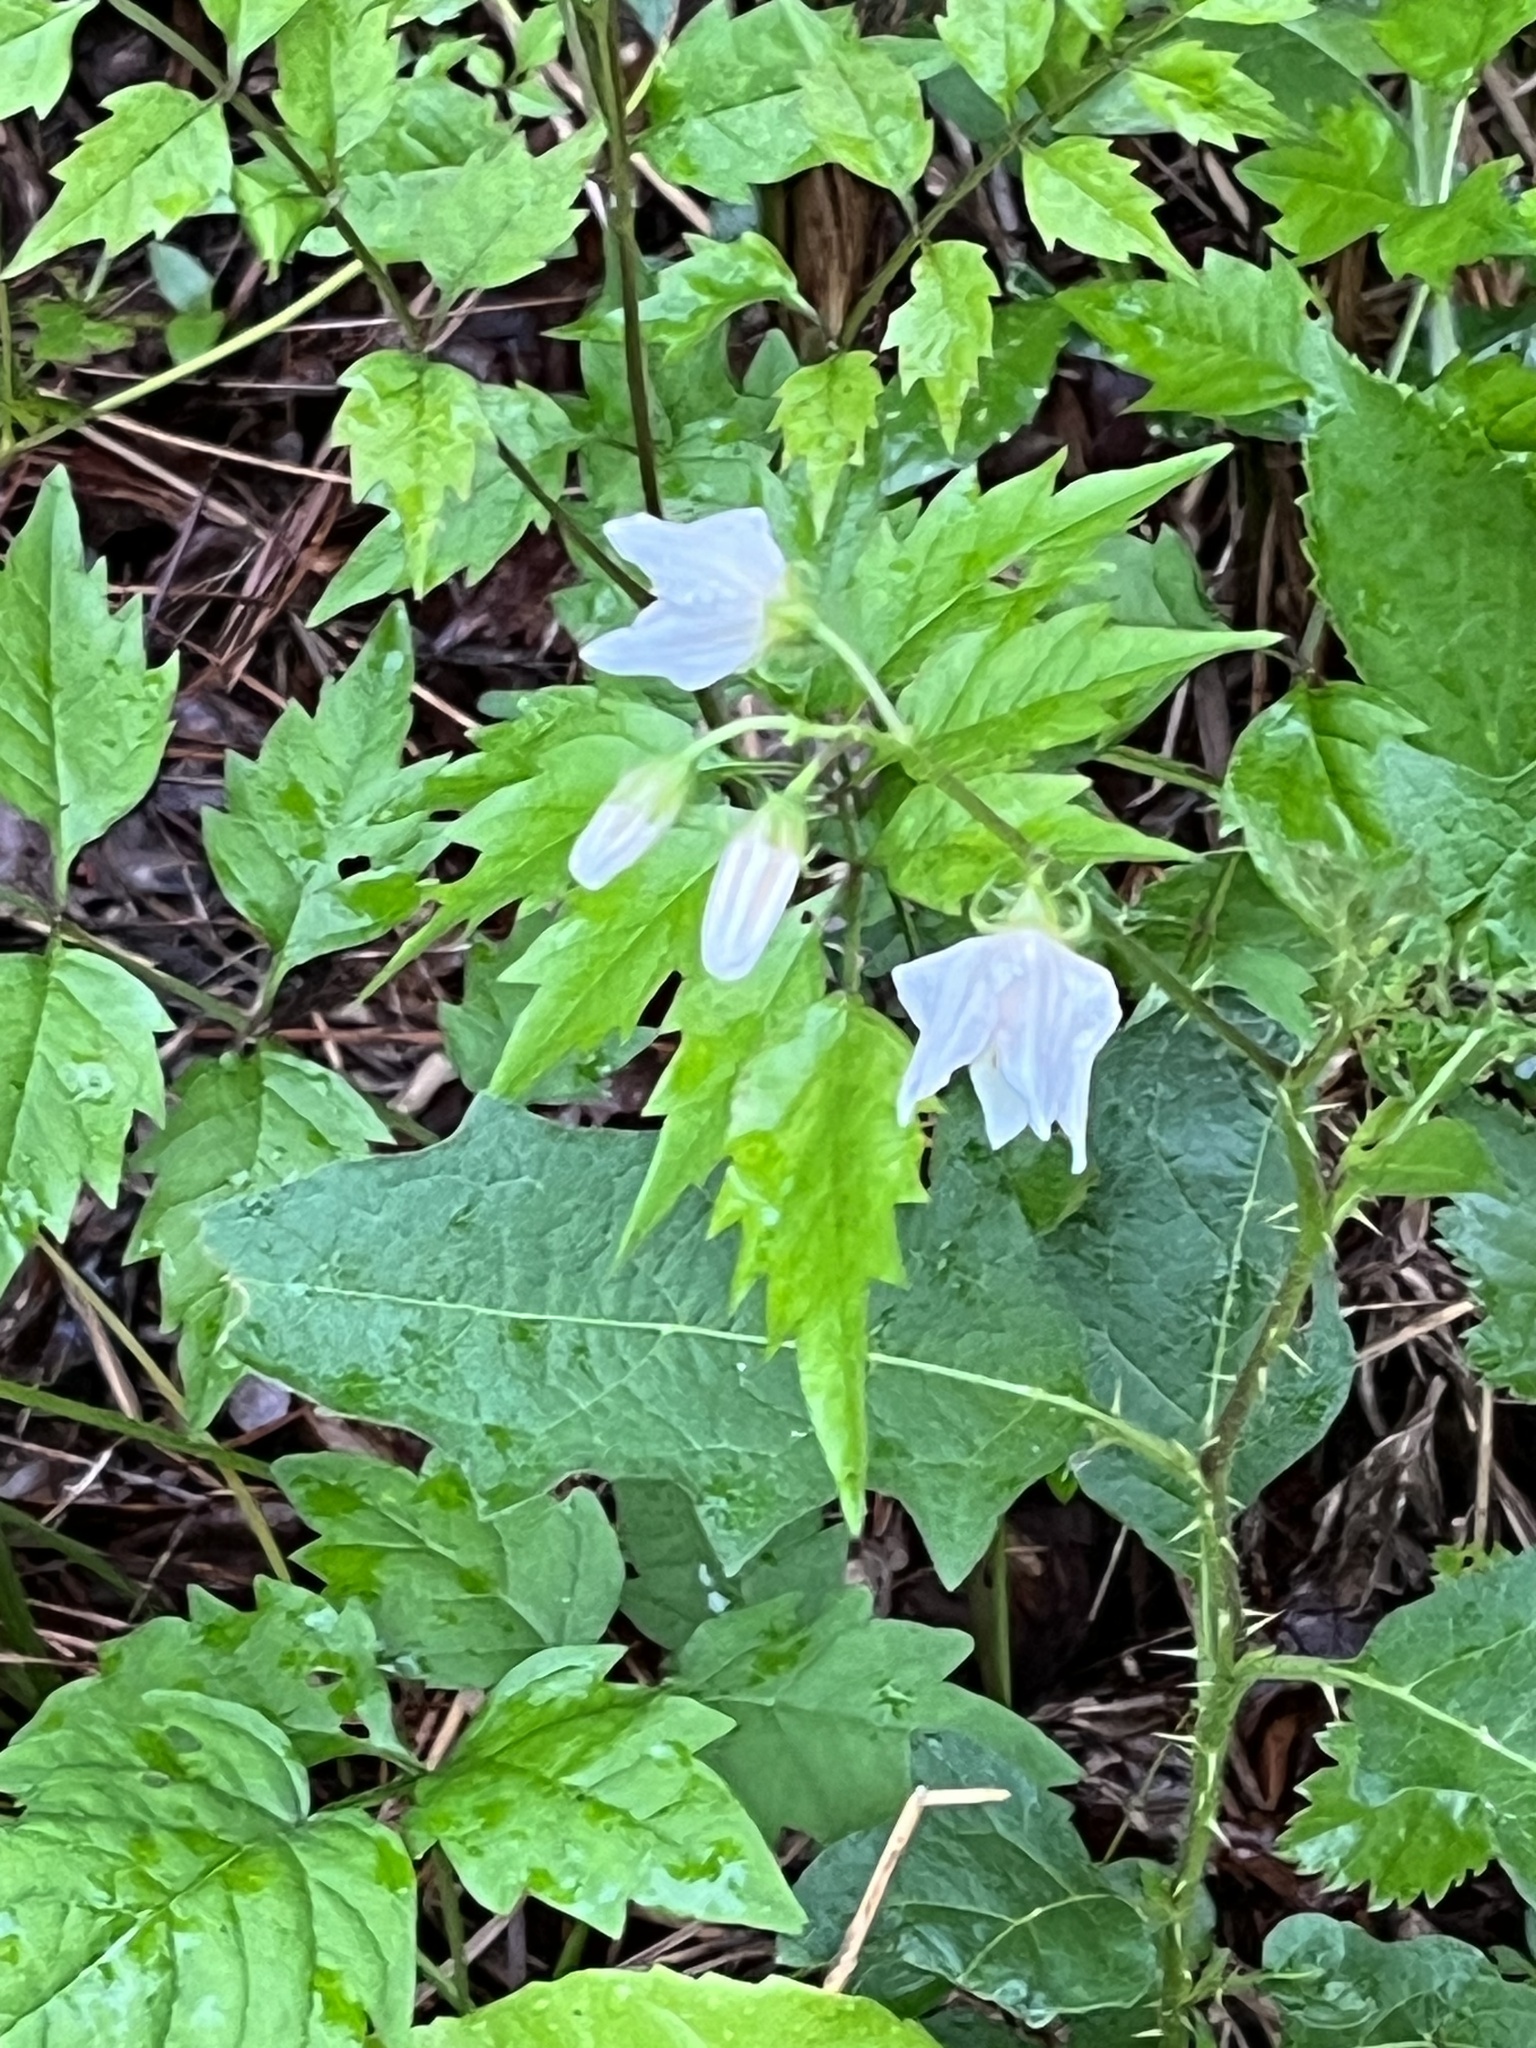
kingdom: Plantae
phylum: Tracheophyta
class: Magnoliopsida
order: Solanales
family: Solanaceae
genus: Solanum
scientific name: Solanum carolinense
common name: Horse-nettle
